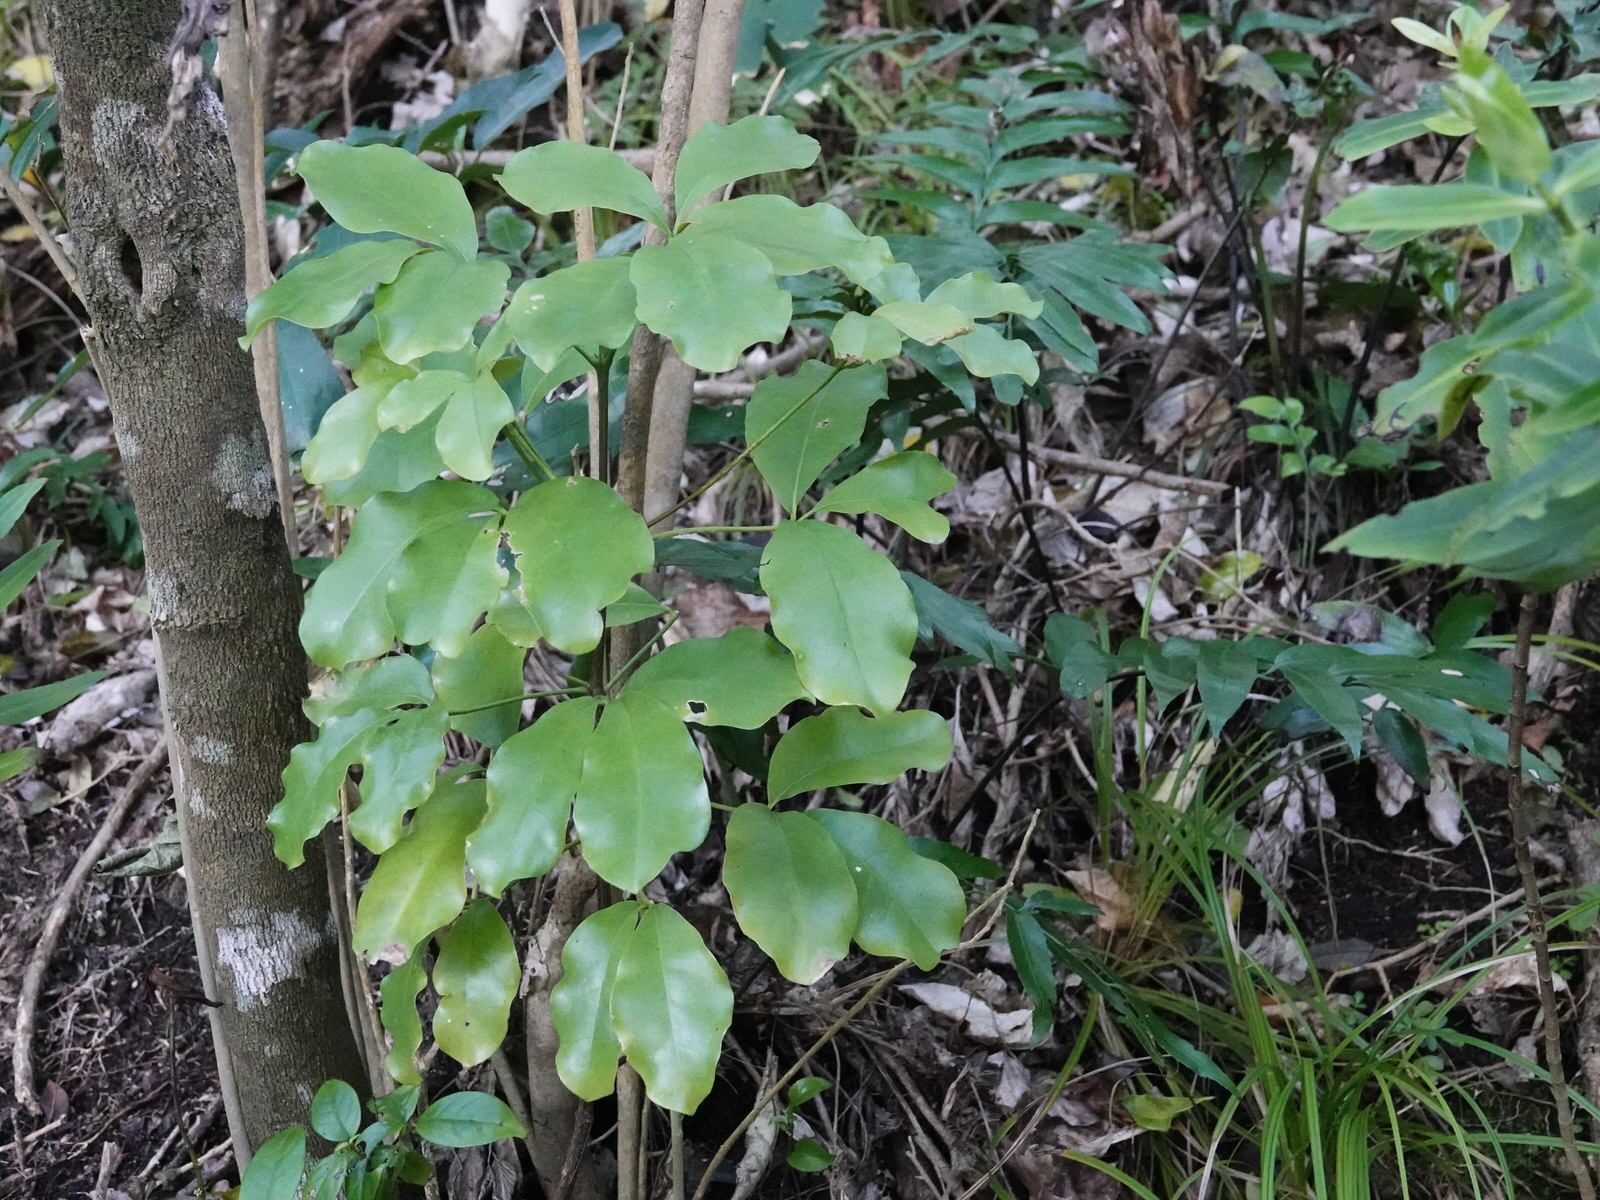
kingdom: Plantae
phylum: Tracheophyta
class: Magnoliopsida
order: Sapindales
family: Rutaceae
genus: Melicope
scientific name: Melicope ternata
